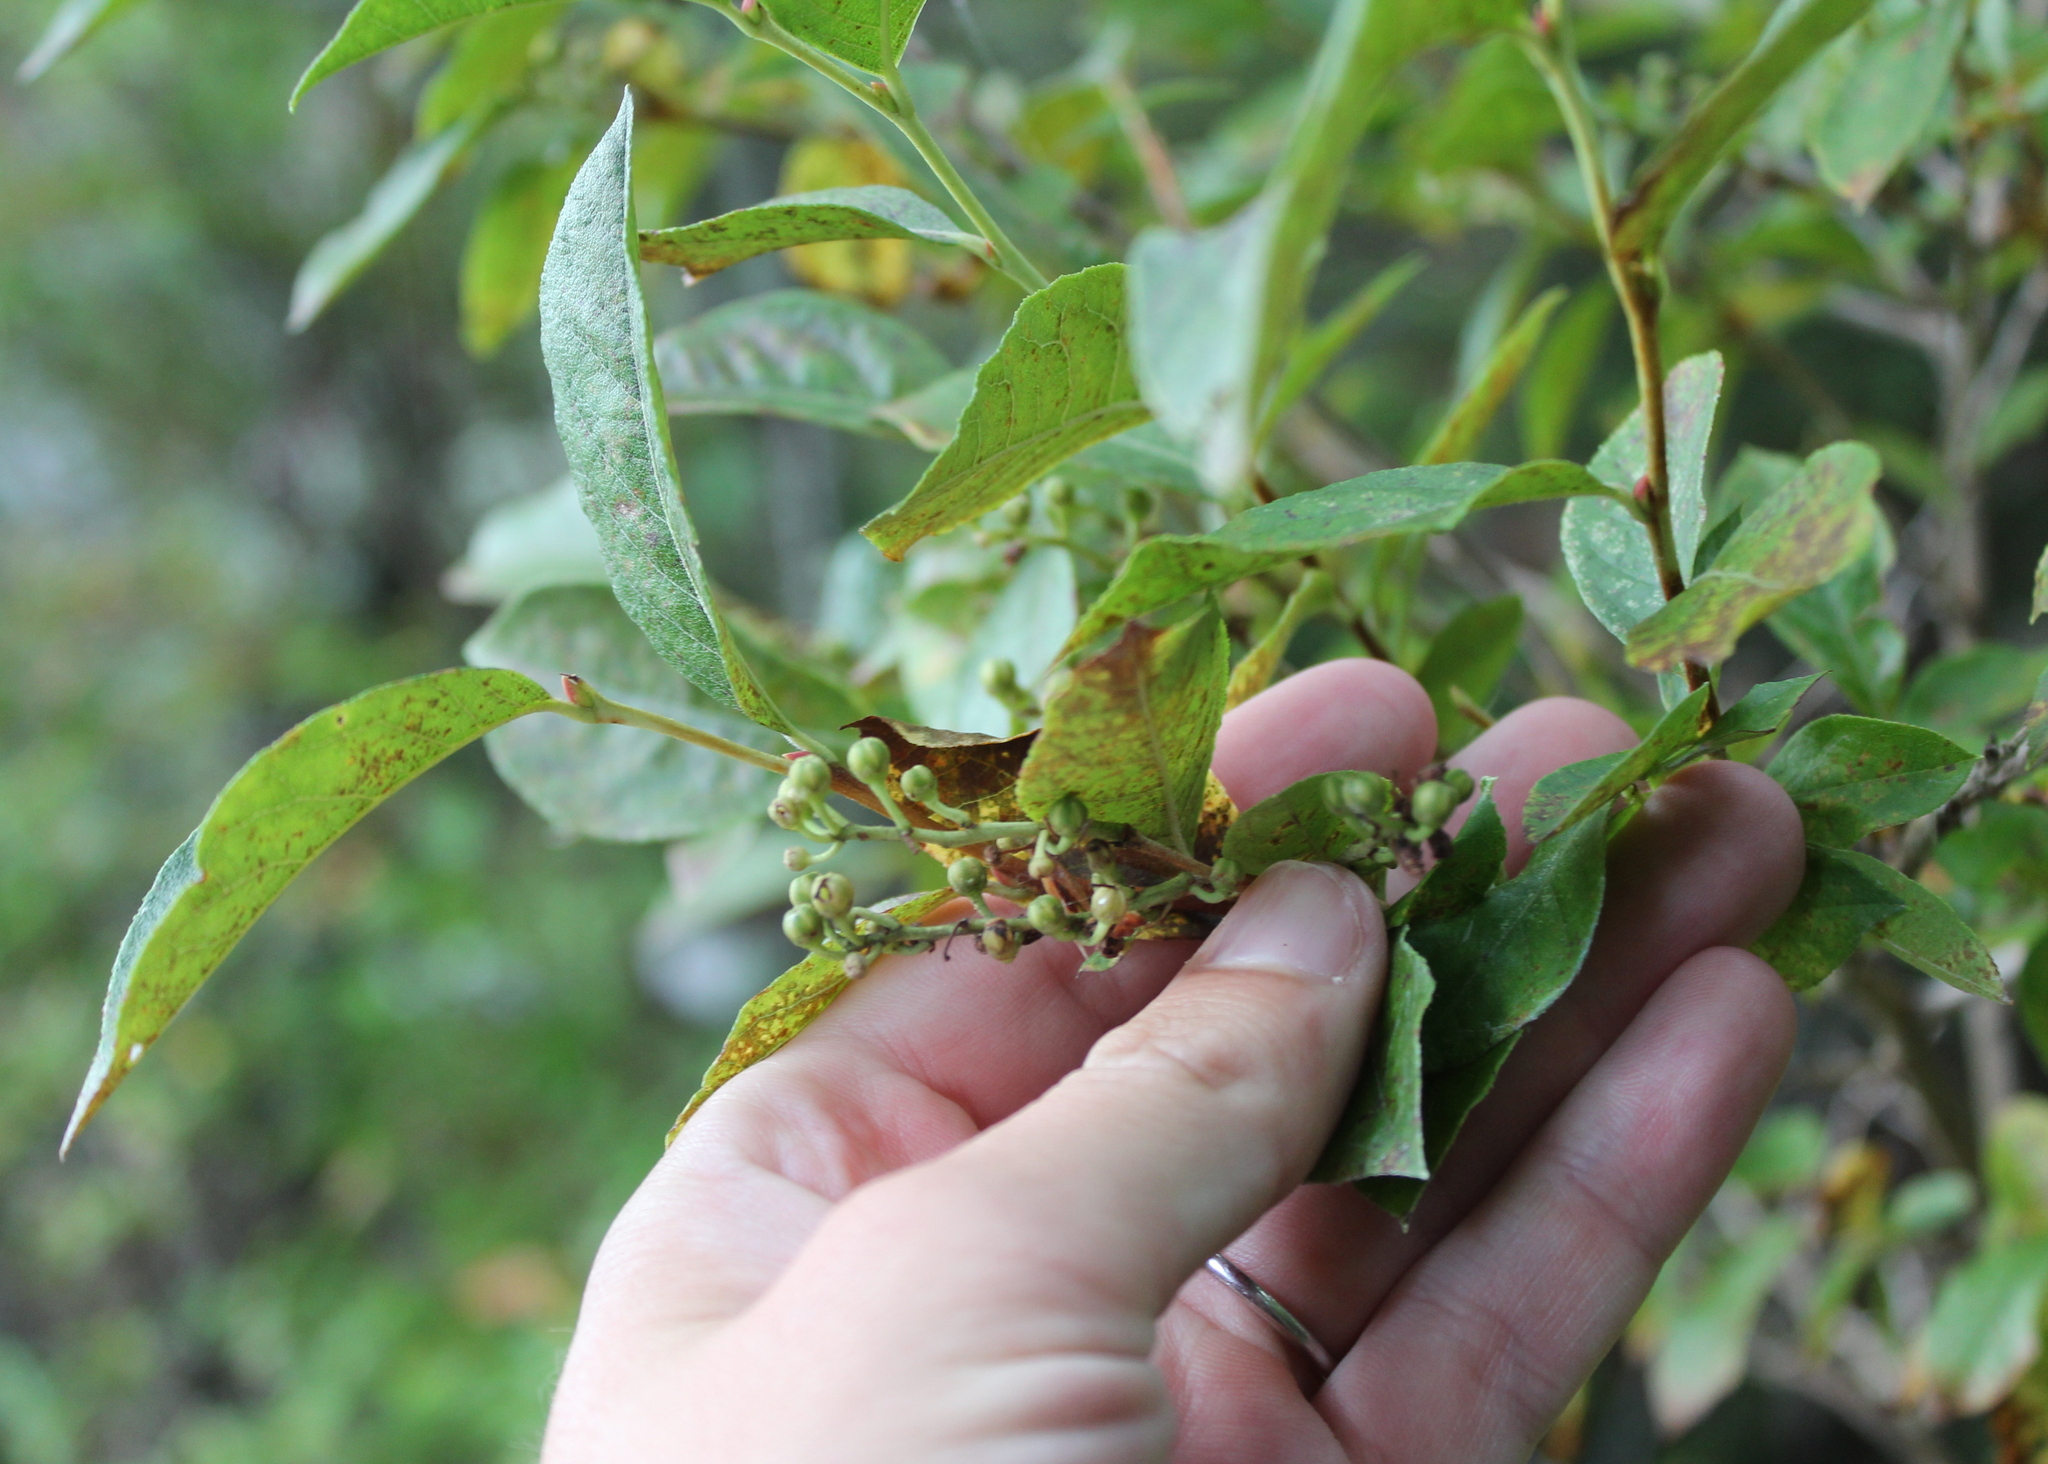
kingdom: Plantae
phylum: Tracheophyta
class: Magnoliopsida
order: Ericales
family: Ericaceae
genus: Lyonia
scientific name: Lyonia ligustrina
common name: Maleberry
